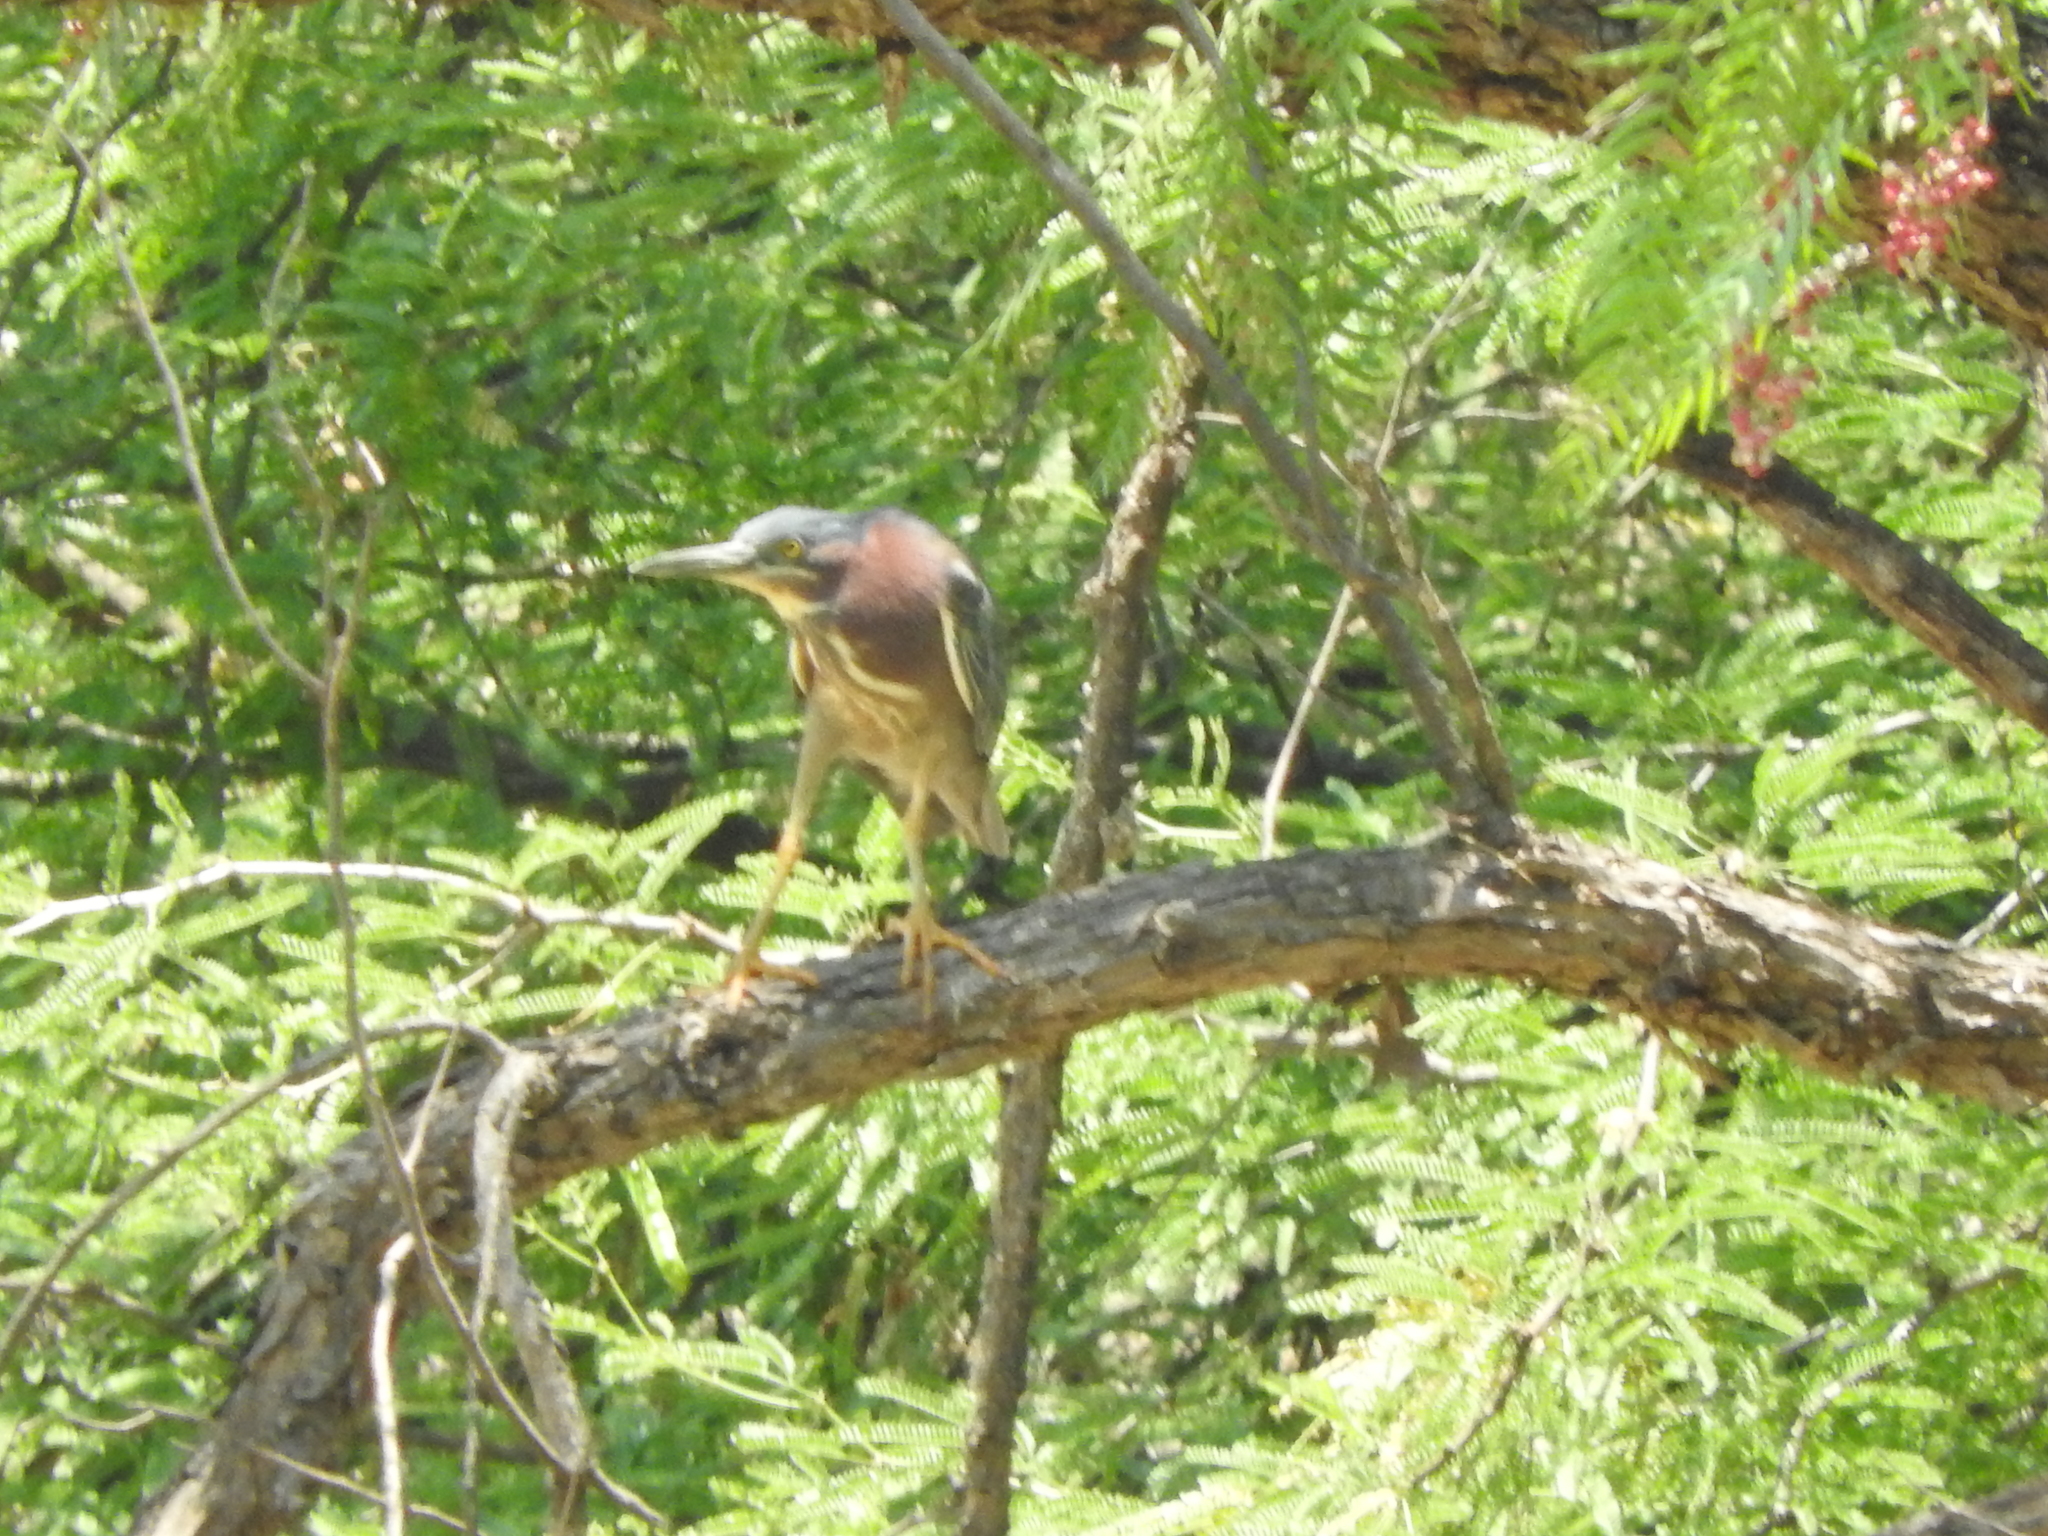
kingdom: Animalia
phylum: Chordata
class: Aves
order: Pelecaniformes
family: Ardeidae
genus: Butorides
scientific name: Butorides virescens
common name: Green heron
